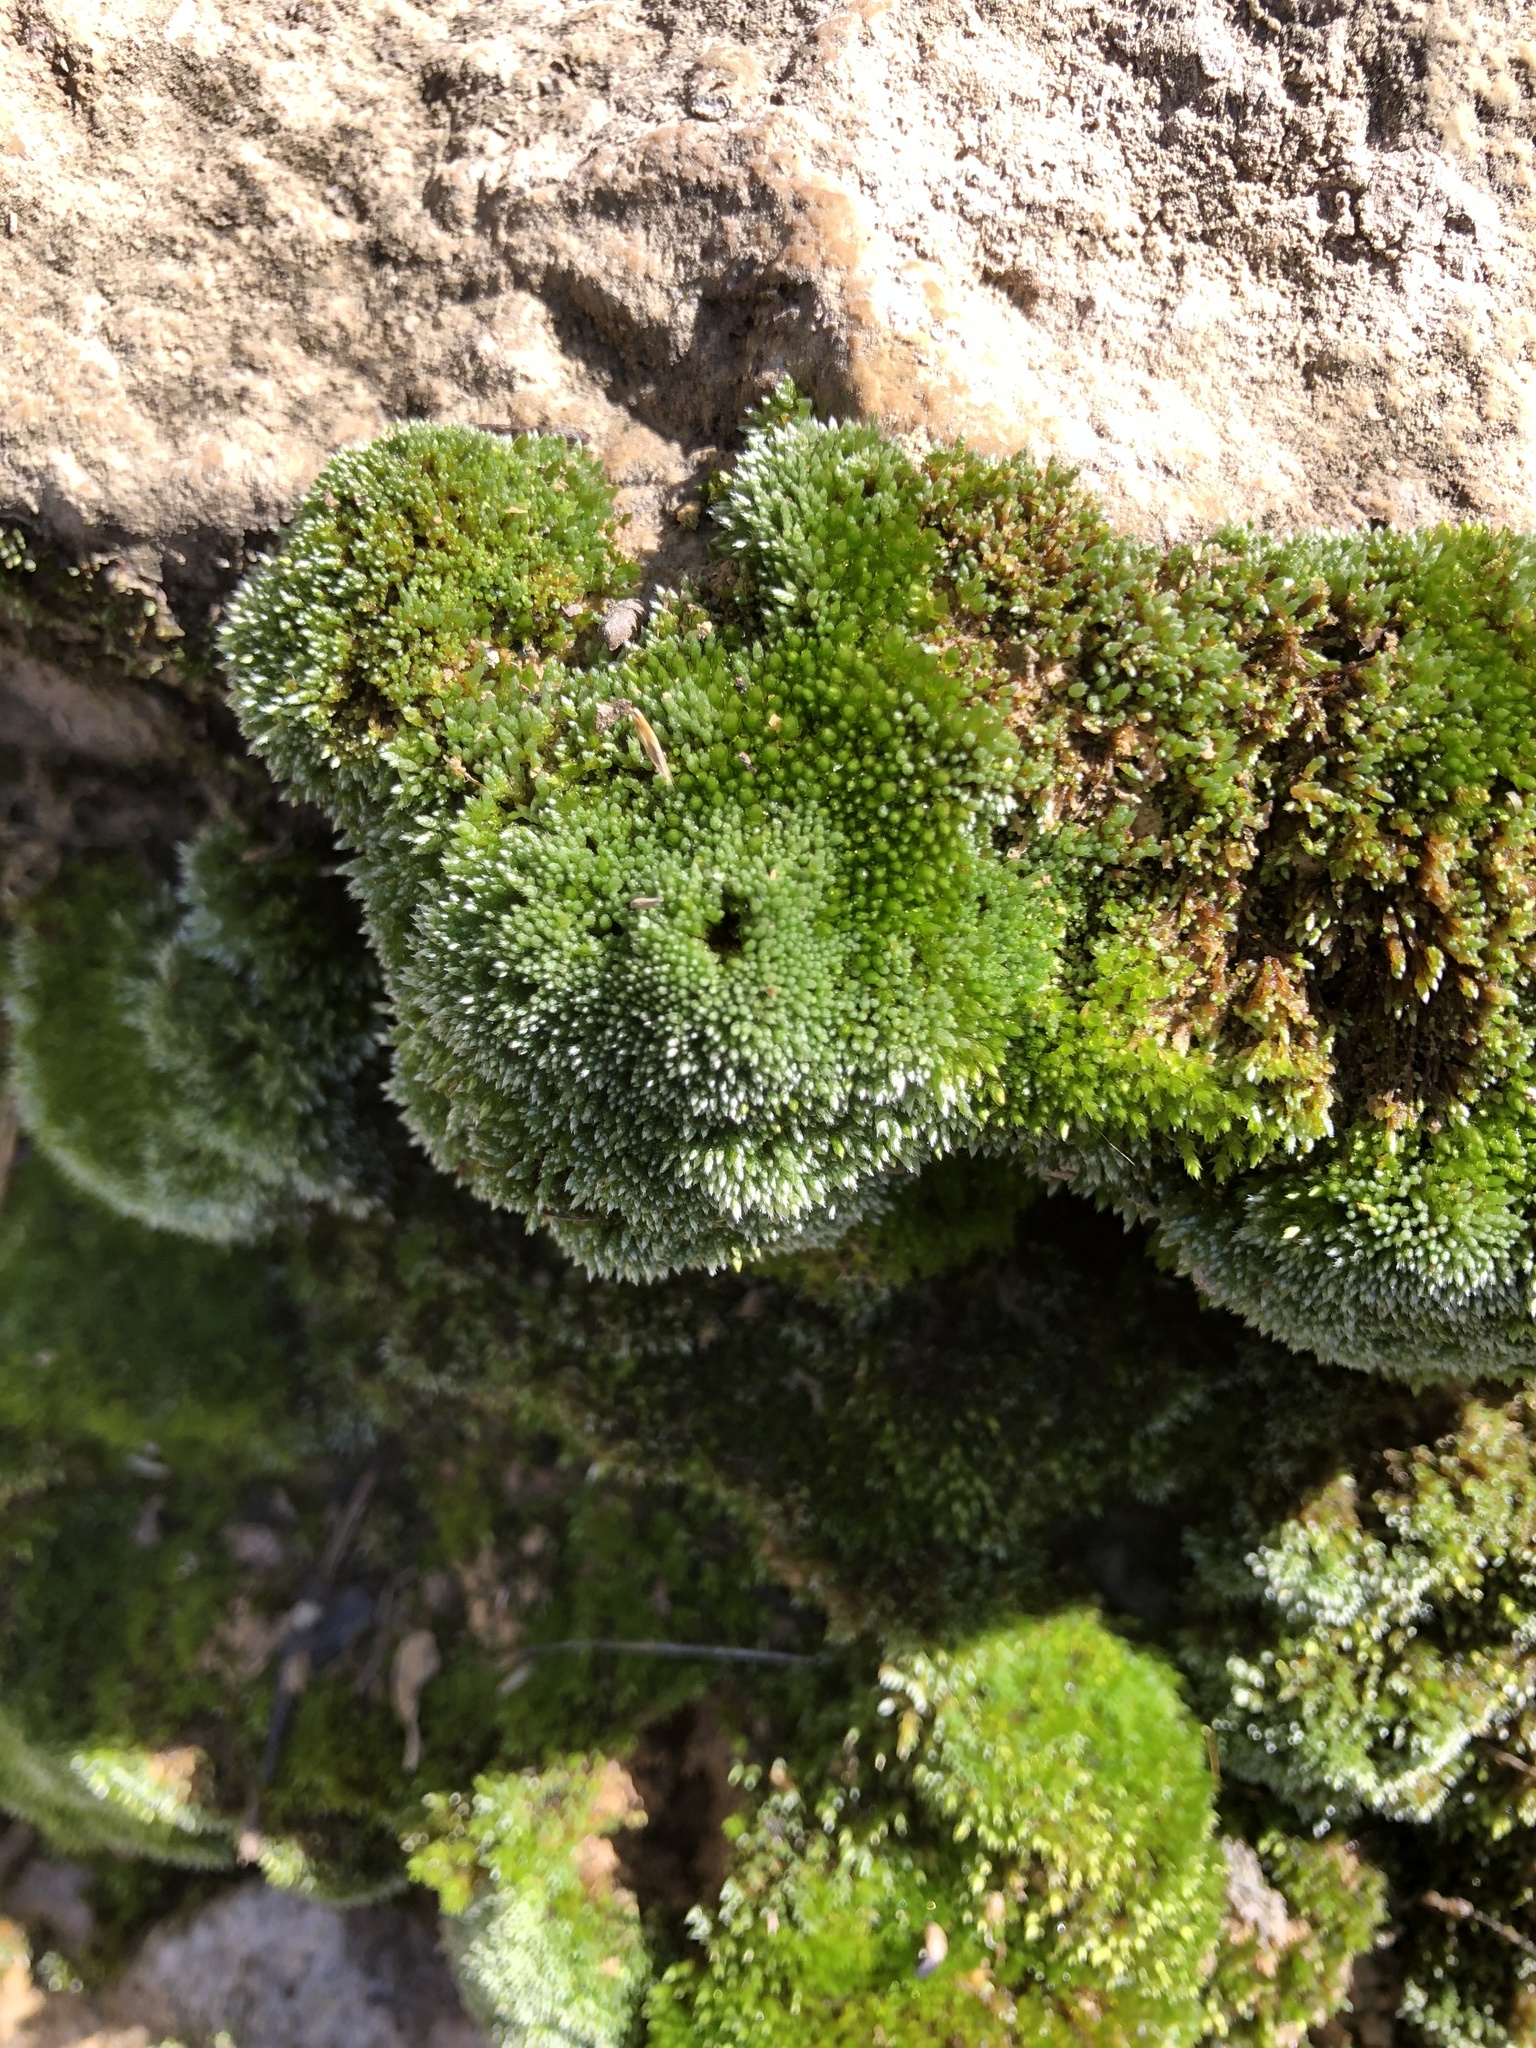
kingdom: Plantae
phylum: Bryophyta
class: Bryopsida
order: Bryales
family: Bryaceae
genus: Bryum
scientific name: Bryum argenteum
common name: Silver-moss
